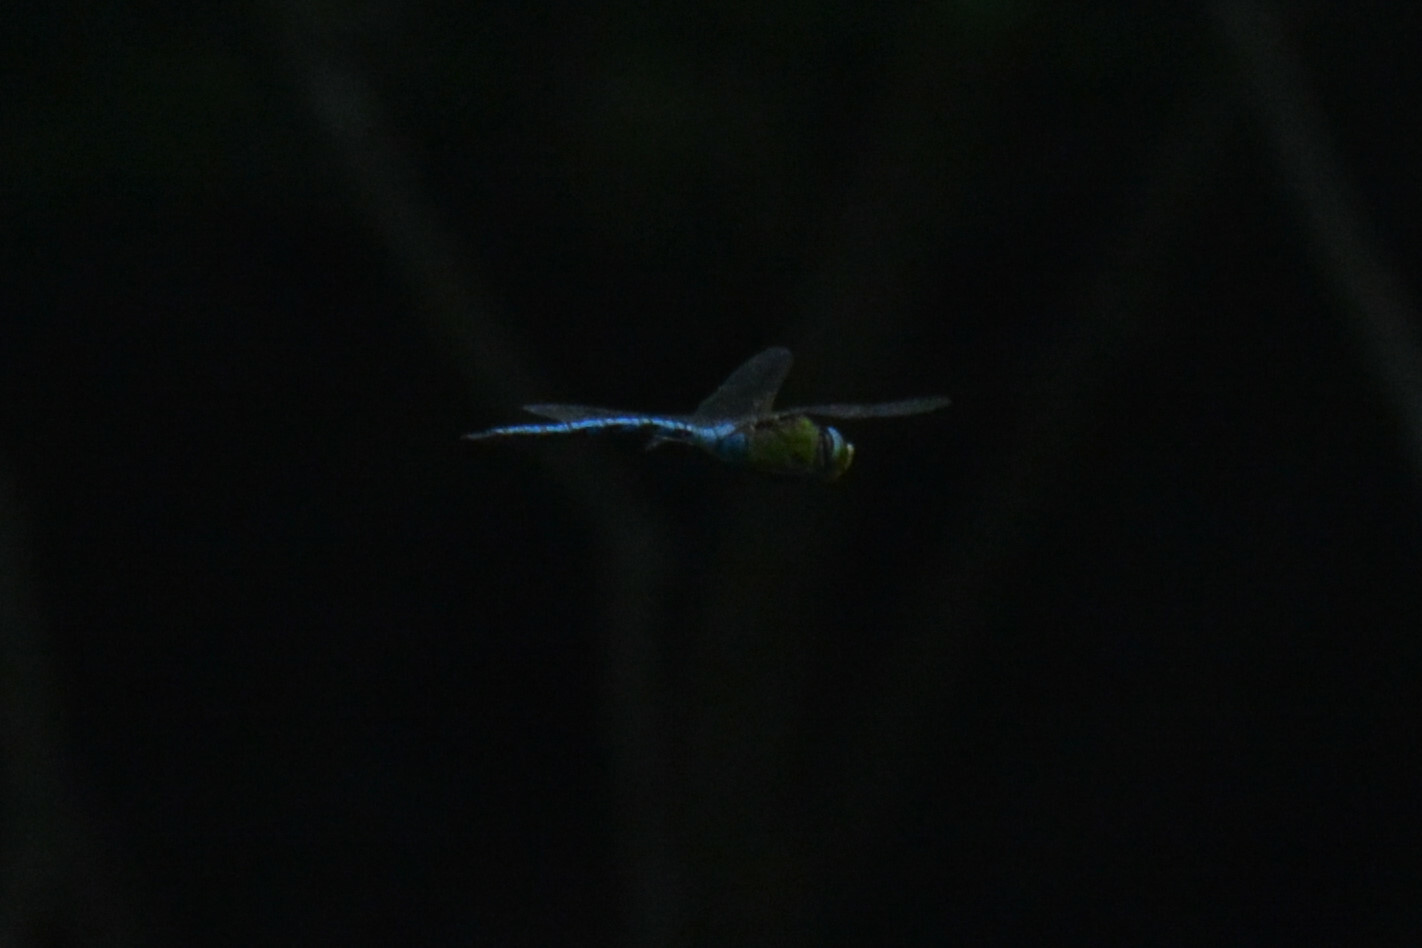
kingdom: Animalia
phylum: Arthropoda
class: Insecta
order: Odonata
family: Aeshnidae
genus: Anax
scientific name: Anax imperator
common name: Emperor dragonfly
